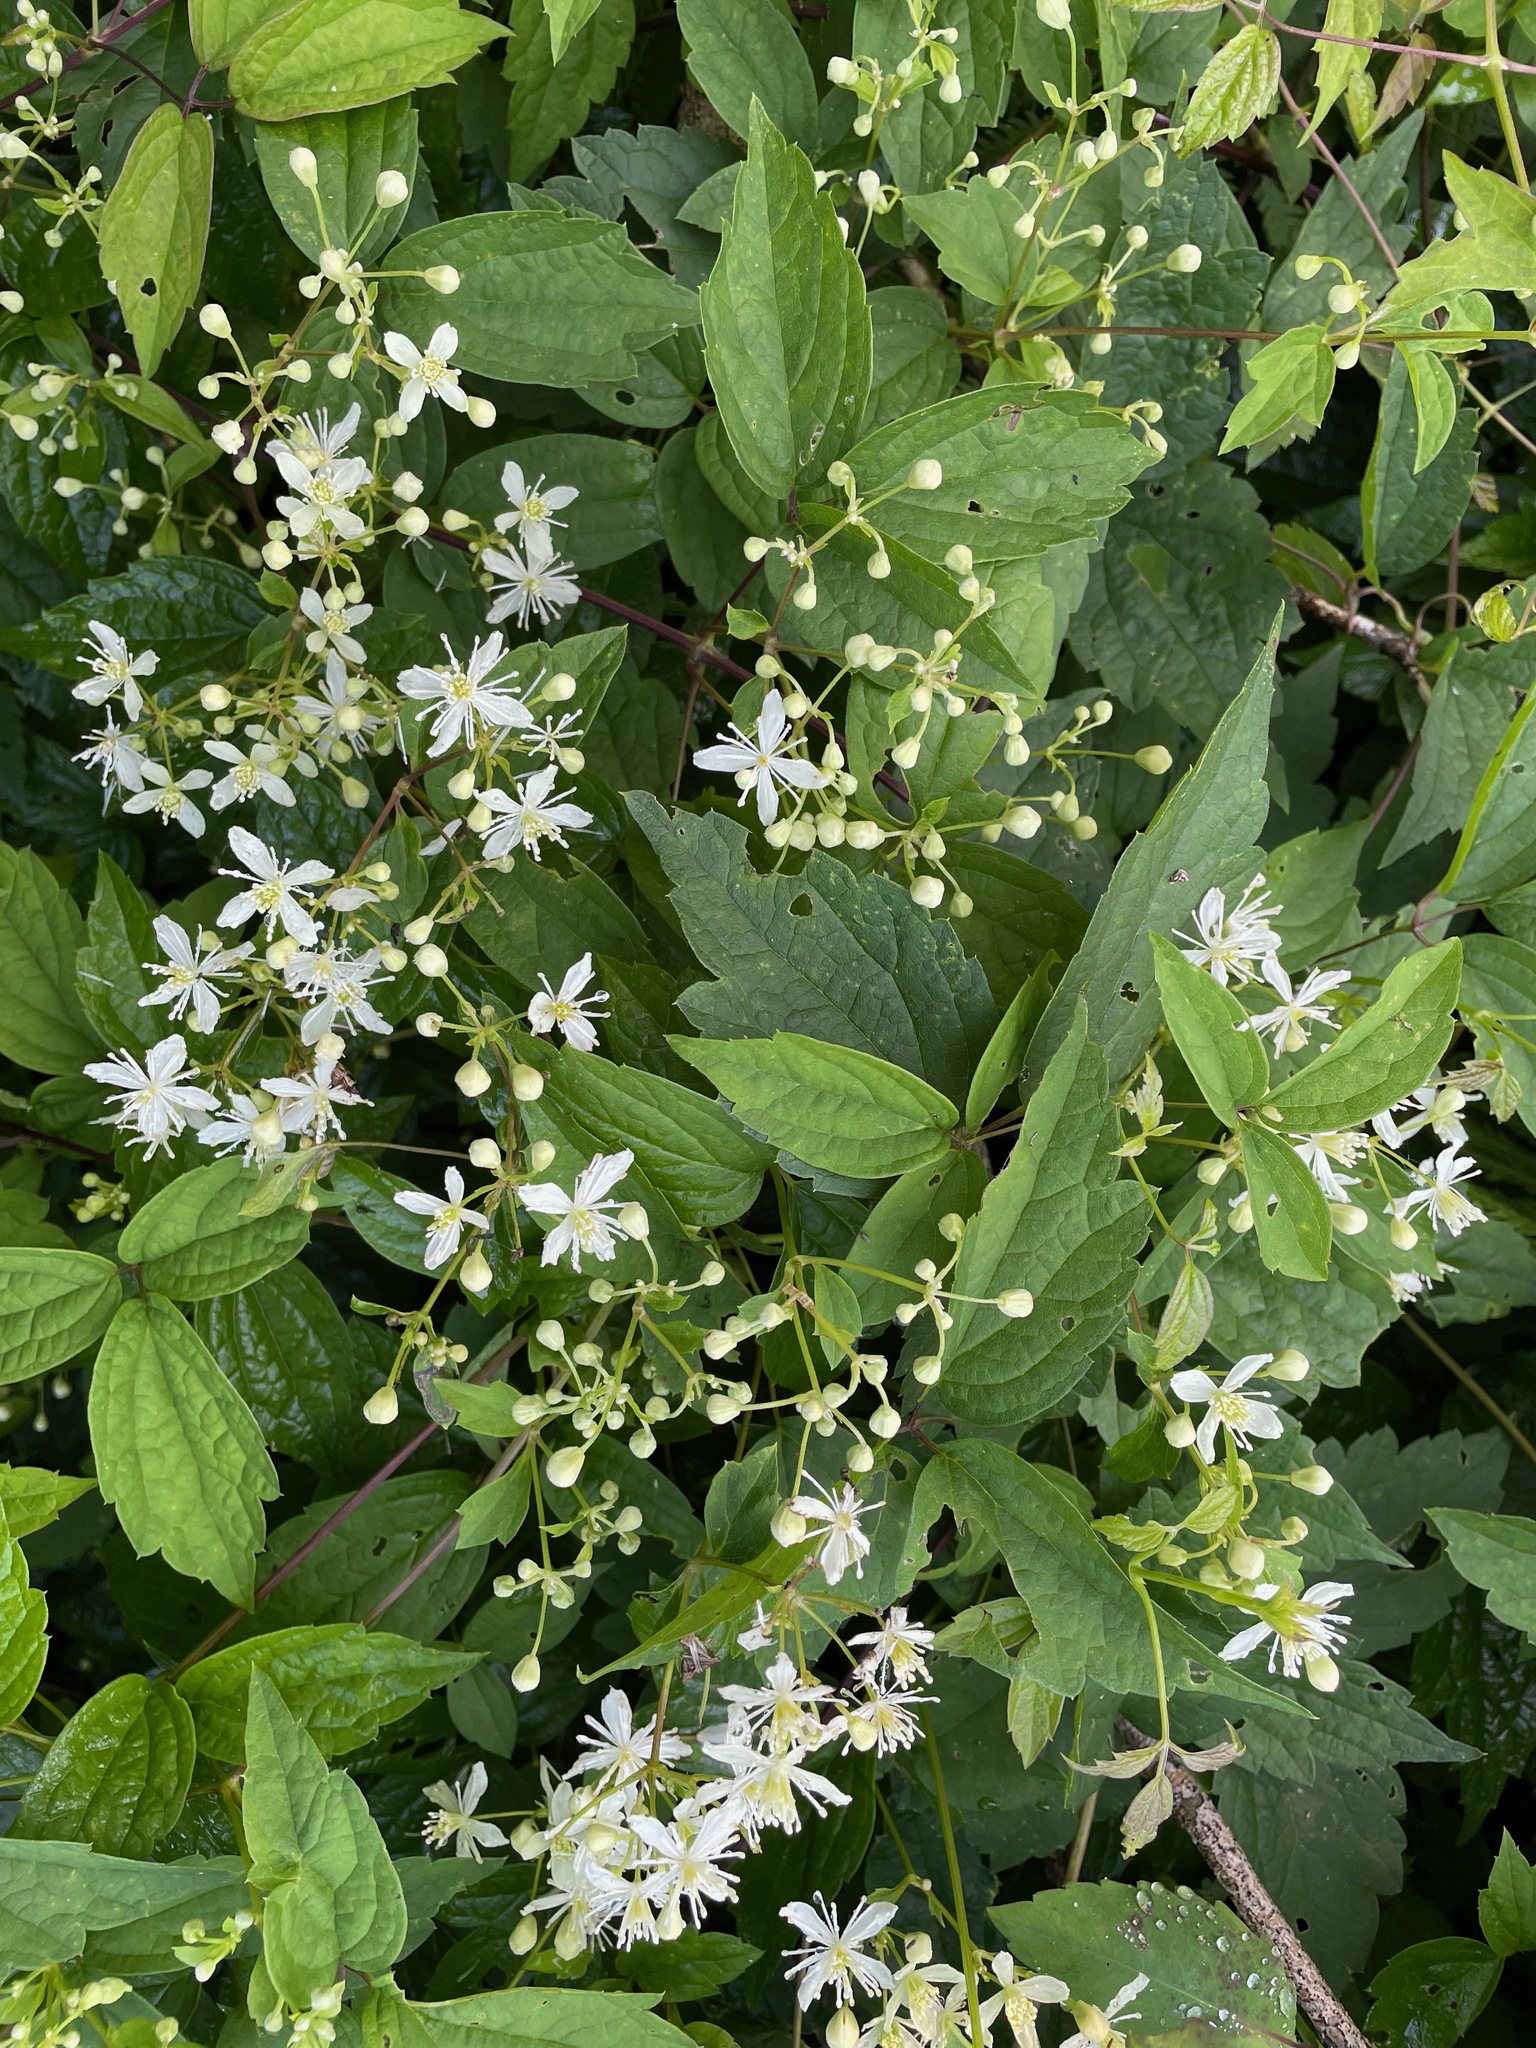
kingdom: Plantae
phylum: Tracheophyta
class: Magnoliopsida
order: Ranunculales
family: Ranunculaceae
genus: Clematis
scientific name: Clematis virginiana
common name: Virgin's-bower
